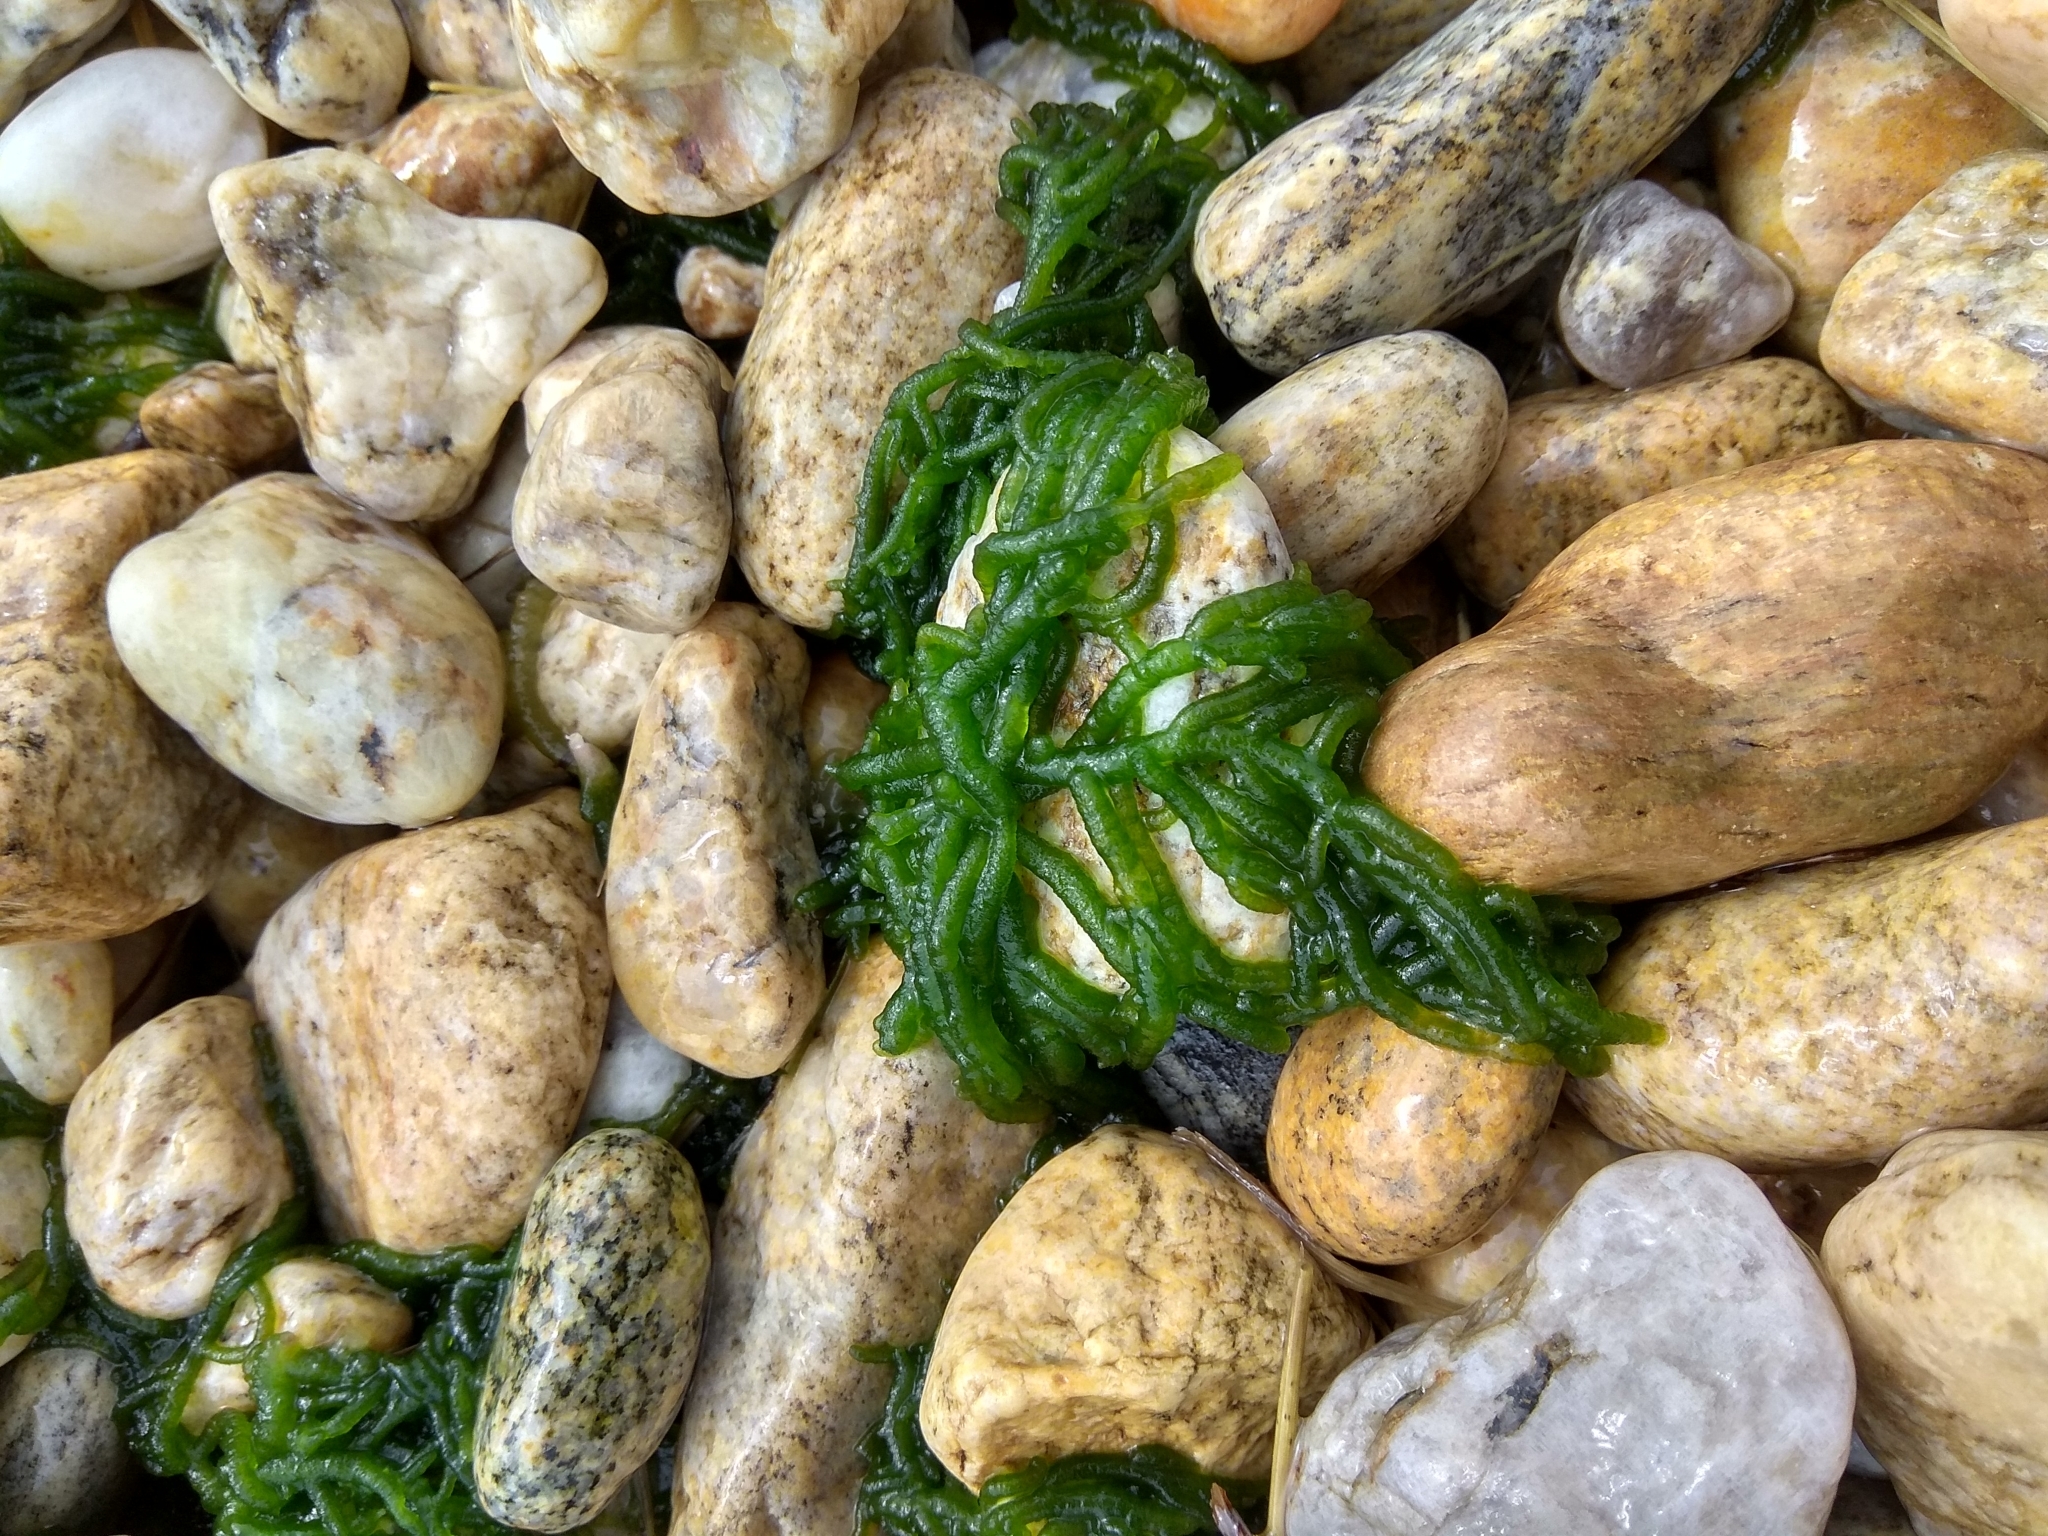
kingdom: Plantae
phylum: Chlorophyta
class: Chlorophyceae
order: Chaetophorales
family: Chaetophoraceae
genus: Draparnaldioides
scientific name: Draparnaldioides
